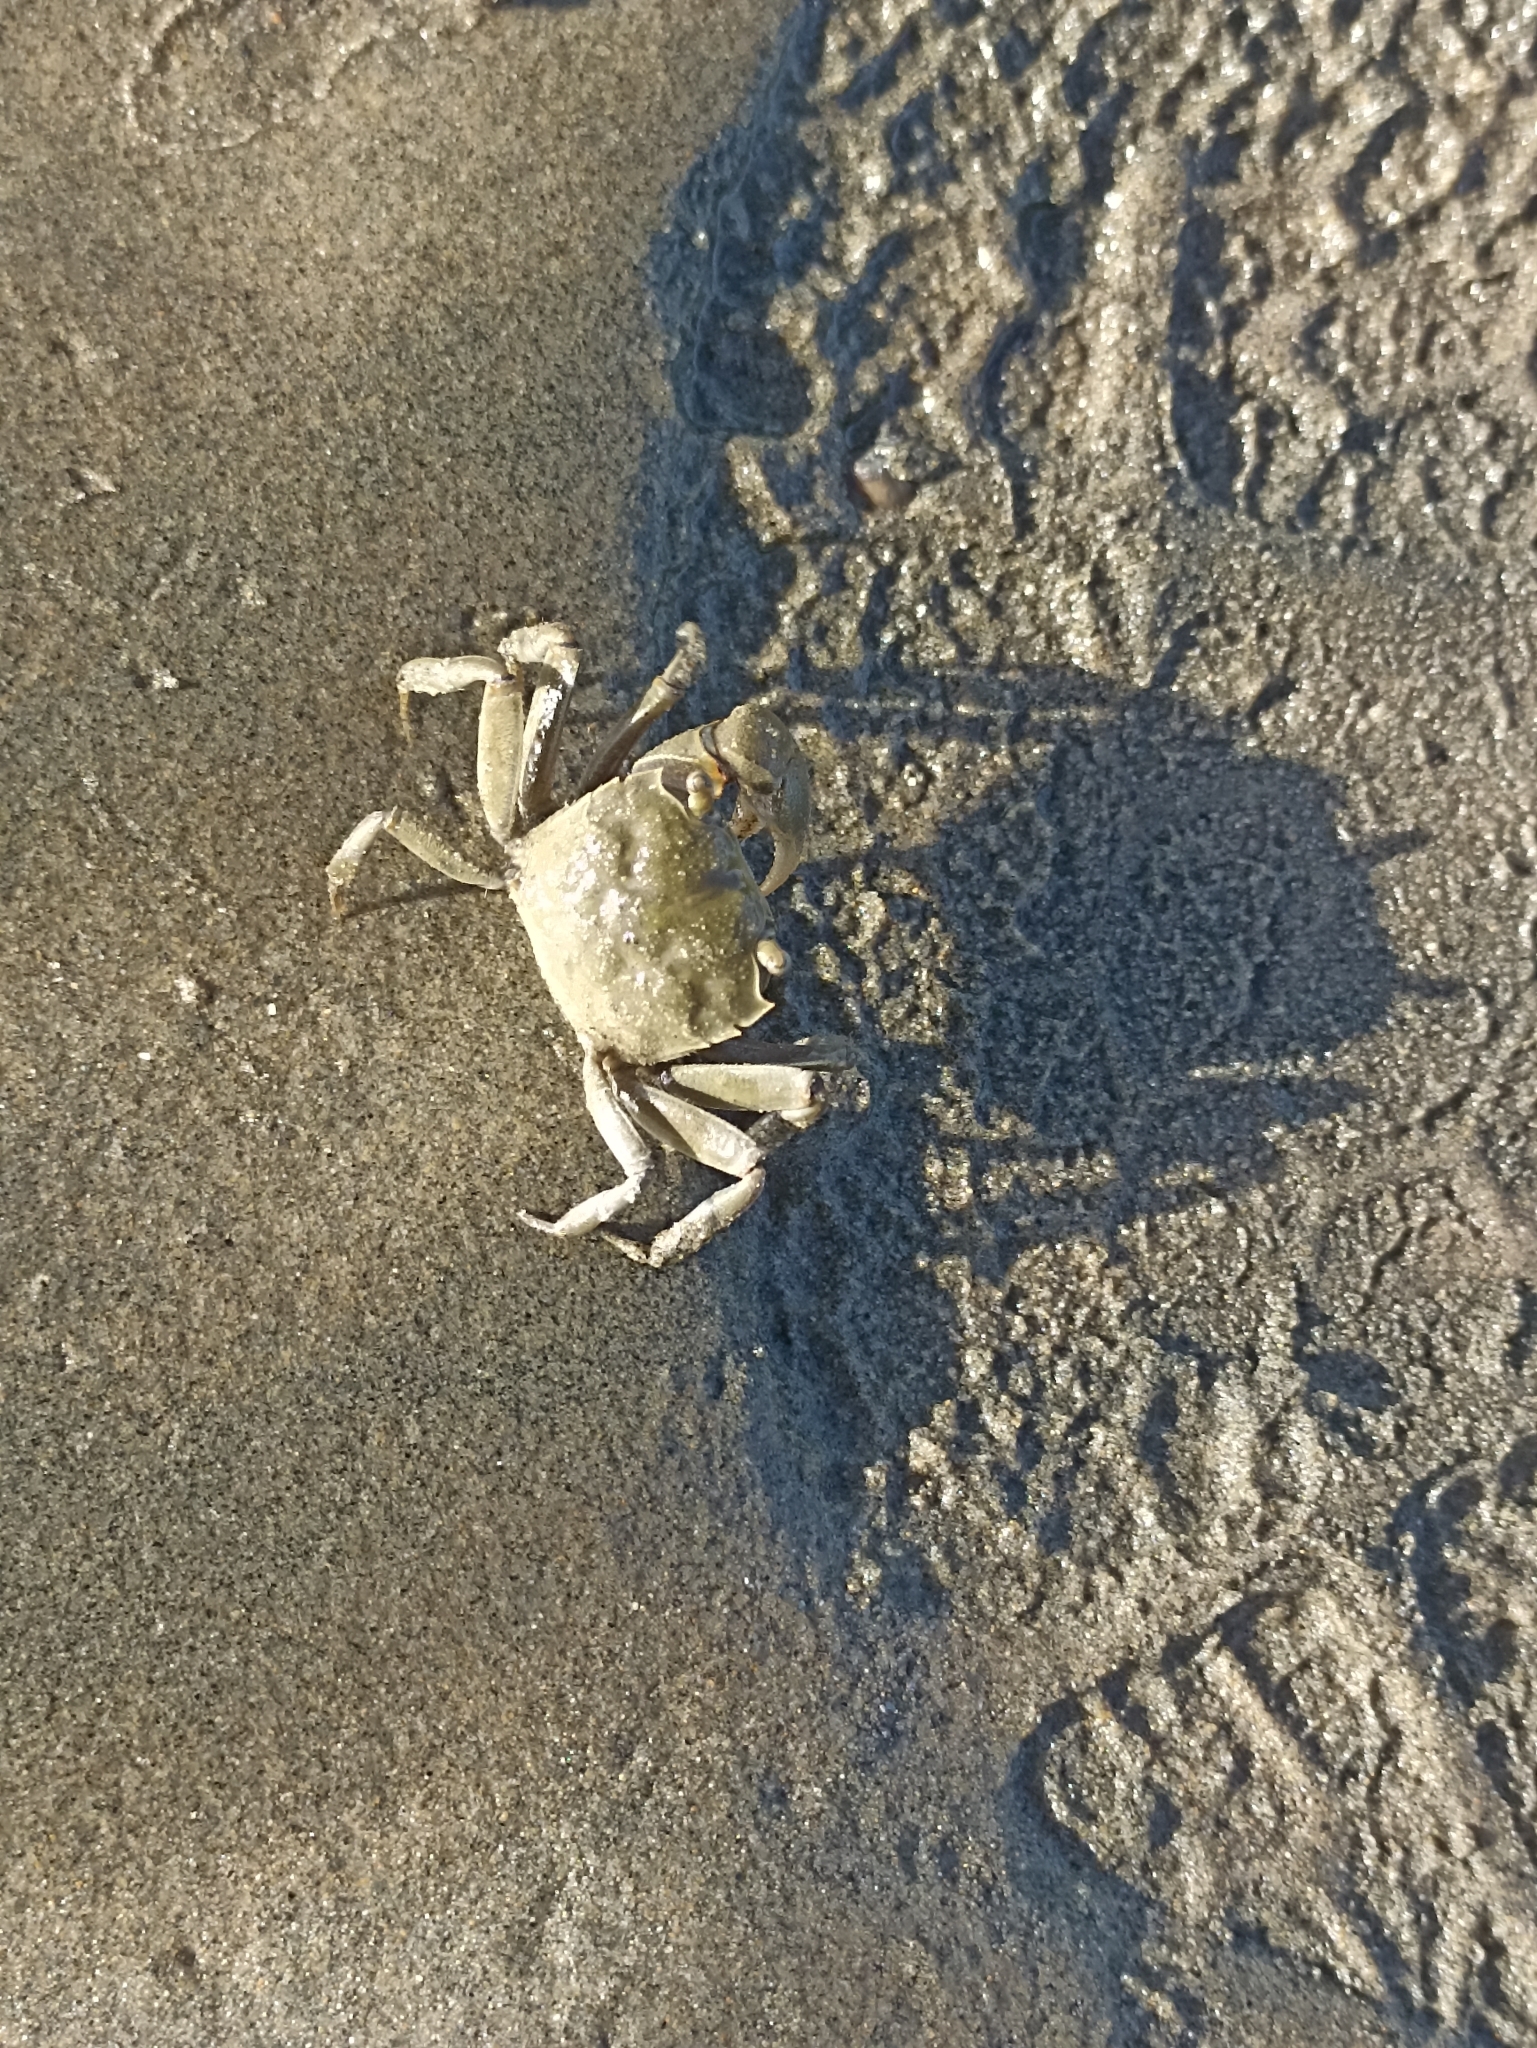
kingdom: Animalia
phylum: Arthropoda
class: Malacostraca
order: Decapoda
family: Varunidae
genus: Austrohelice
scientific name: Austrohelice crassa
